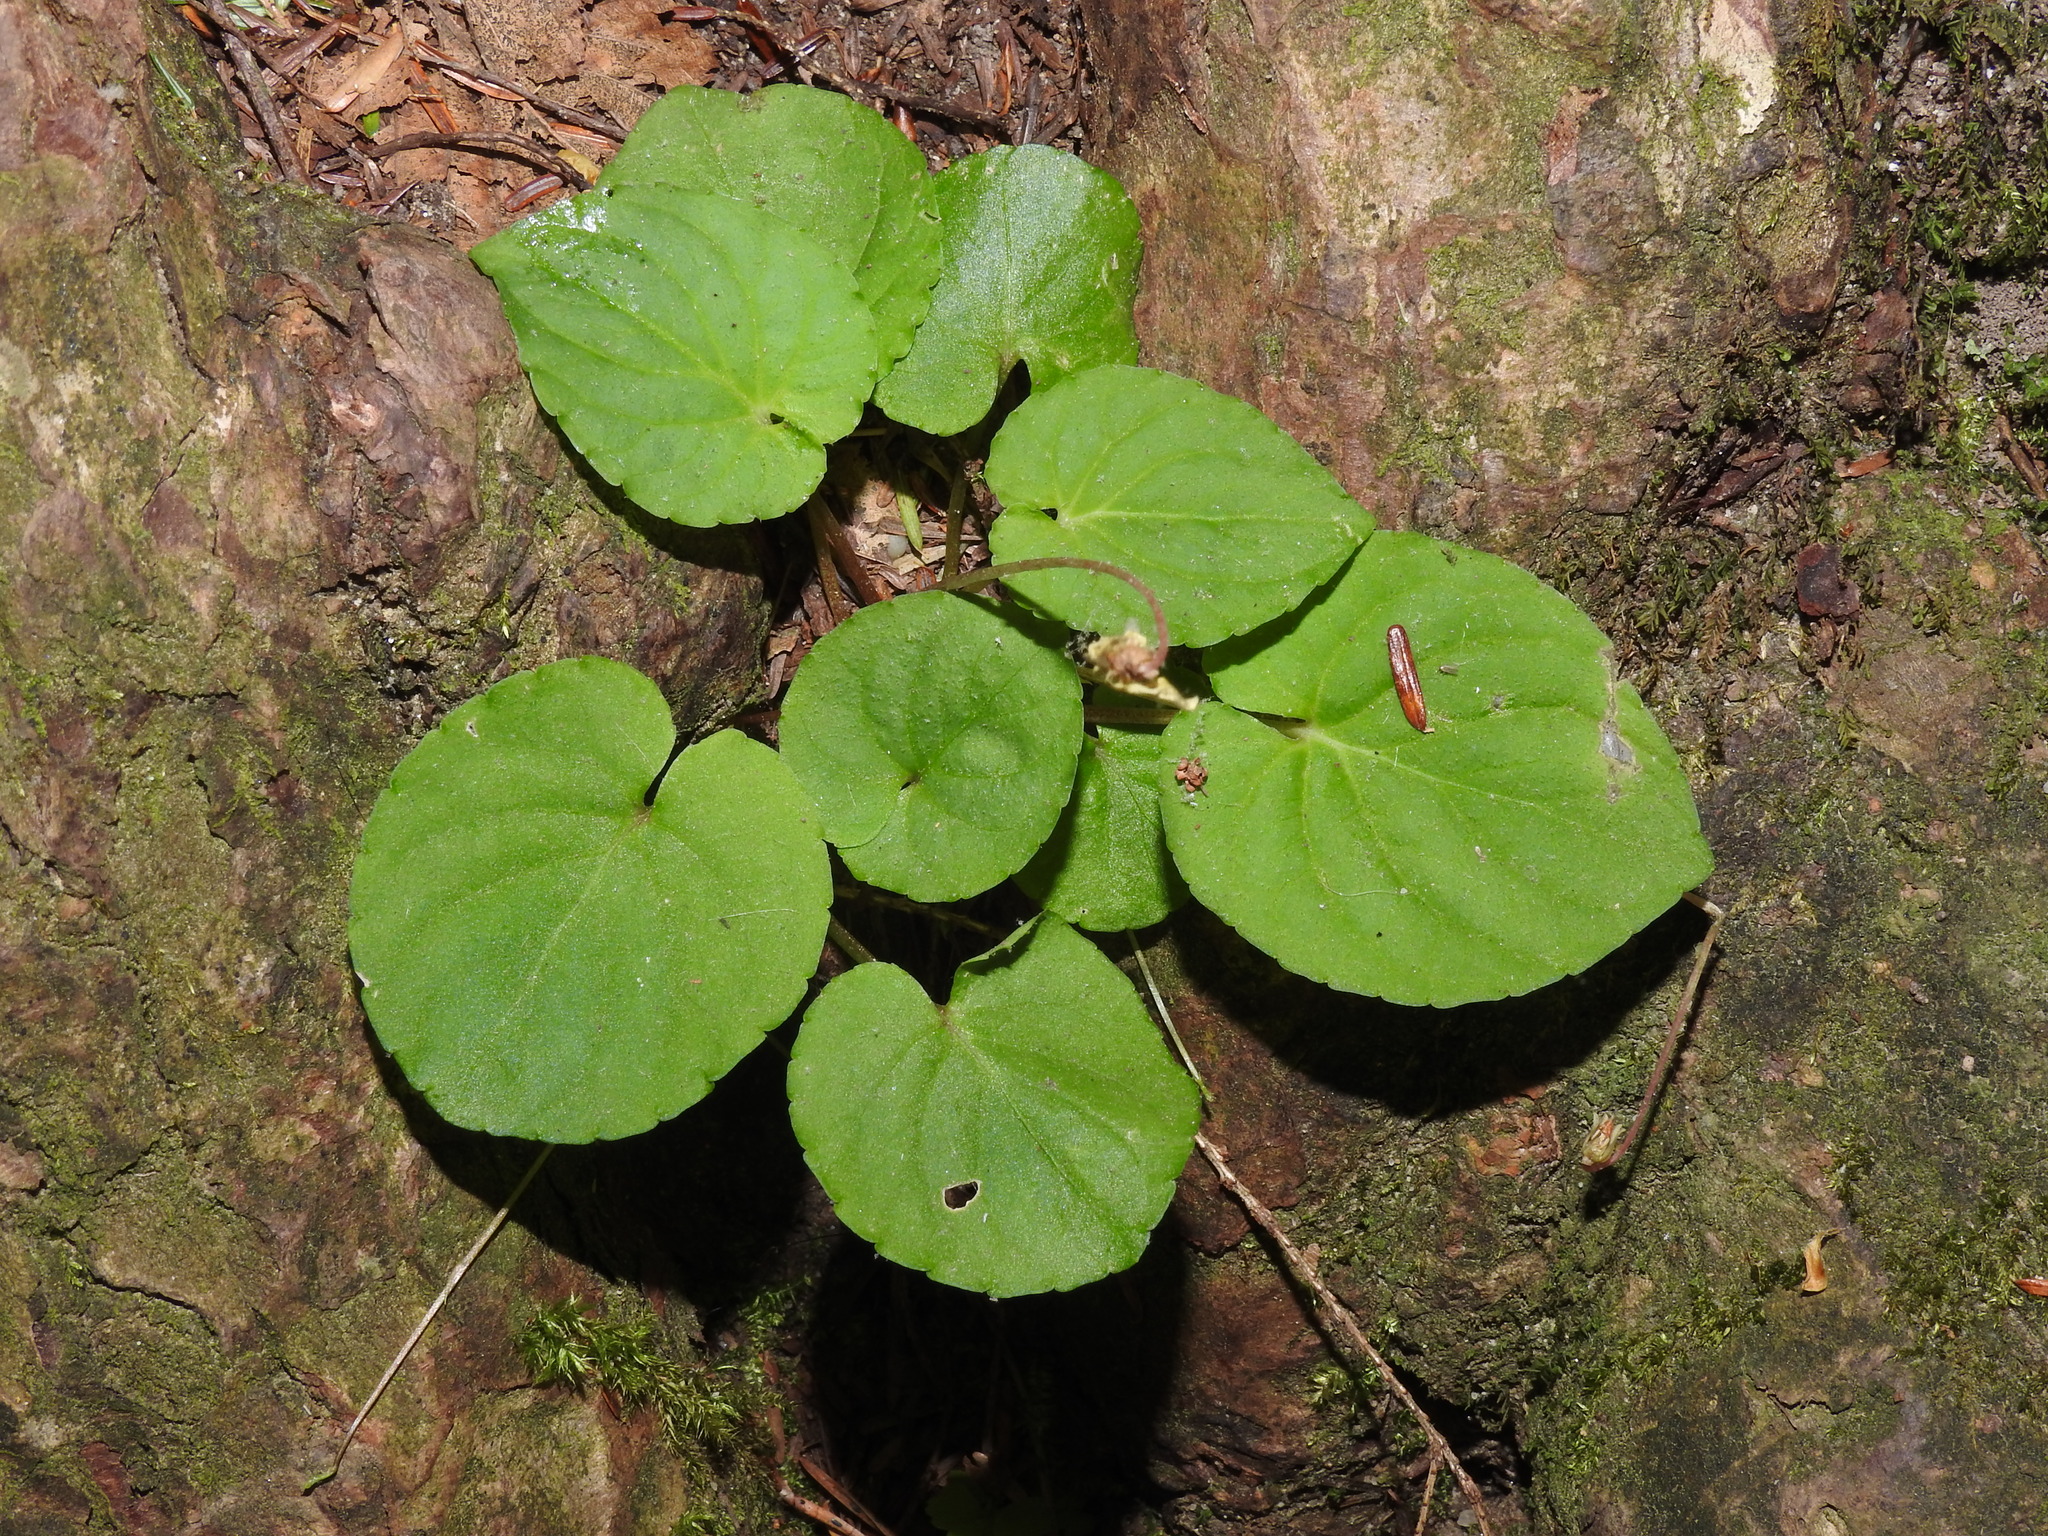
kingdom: Plantae
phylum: Tracheophyta
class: Magnoliopsida
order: Malpighiales
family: Violaceae
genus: Viola
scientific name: Viola blanda
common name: Sweet white violet
